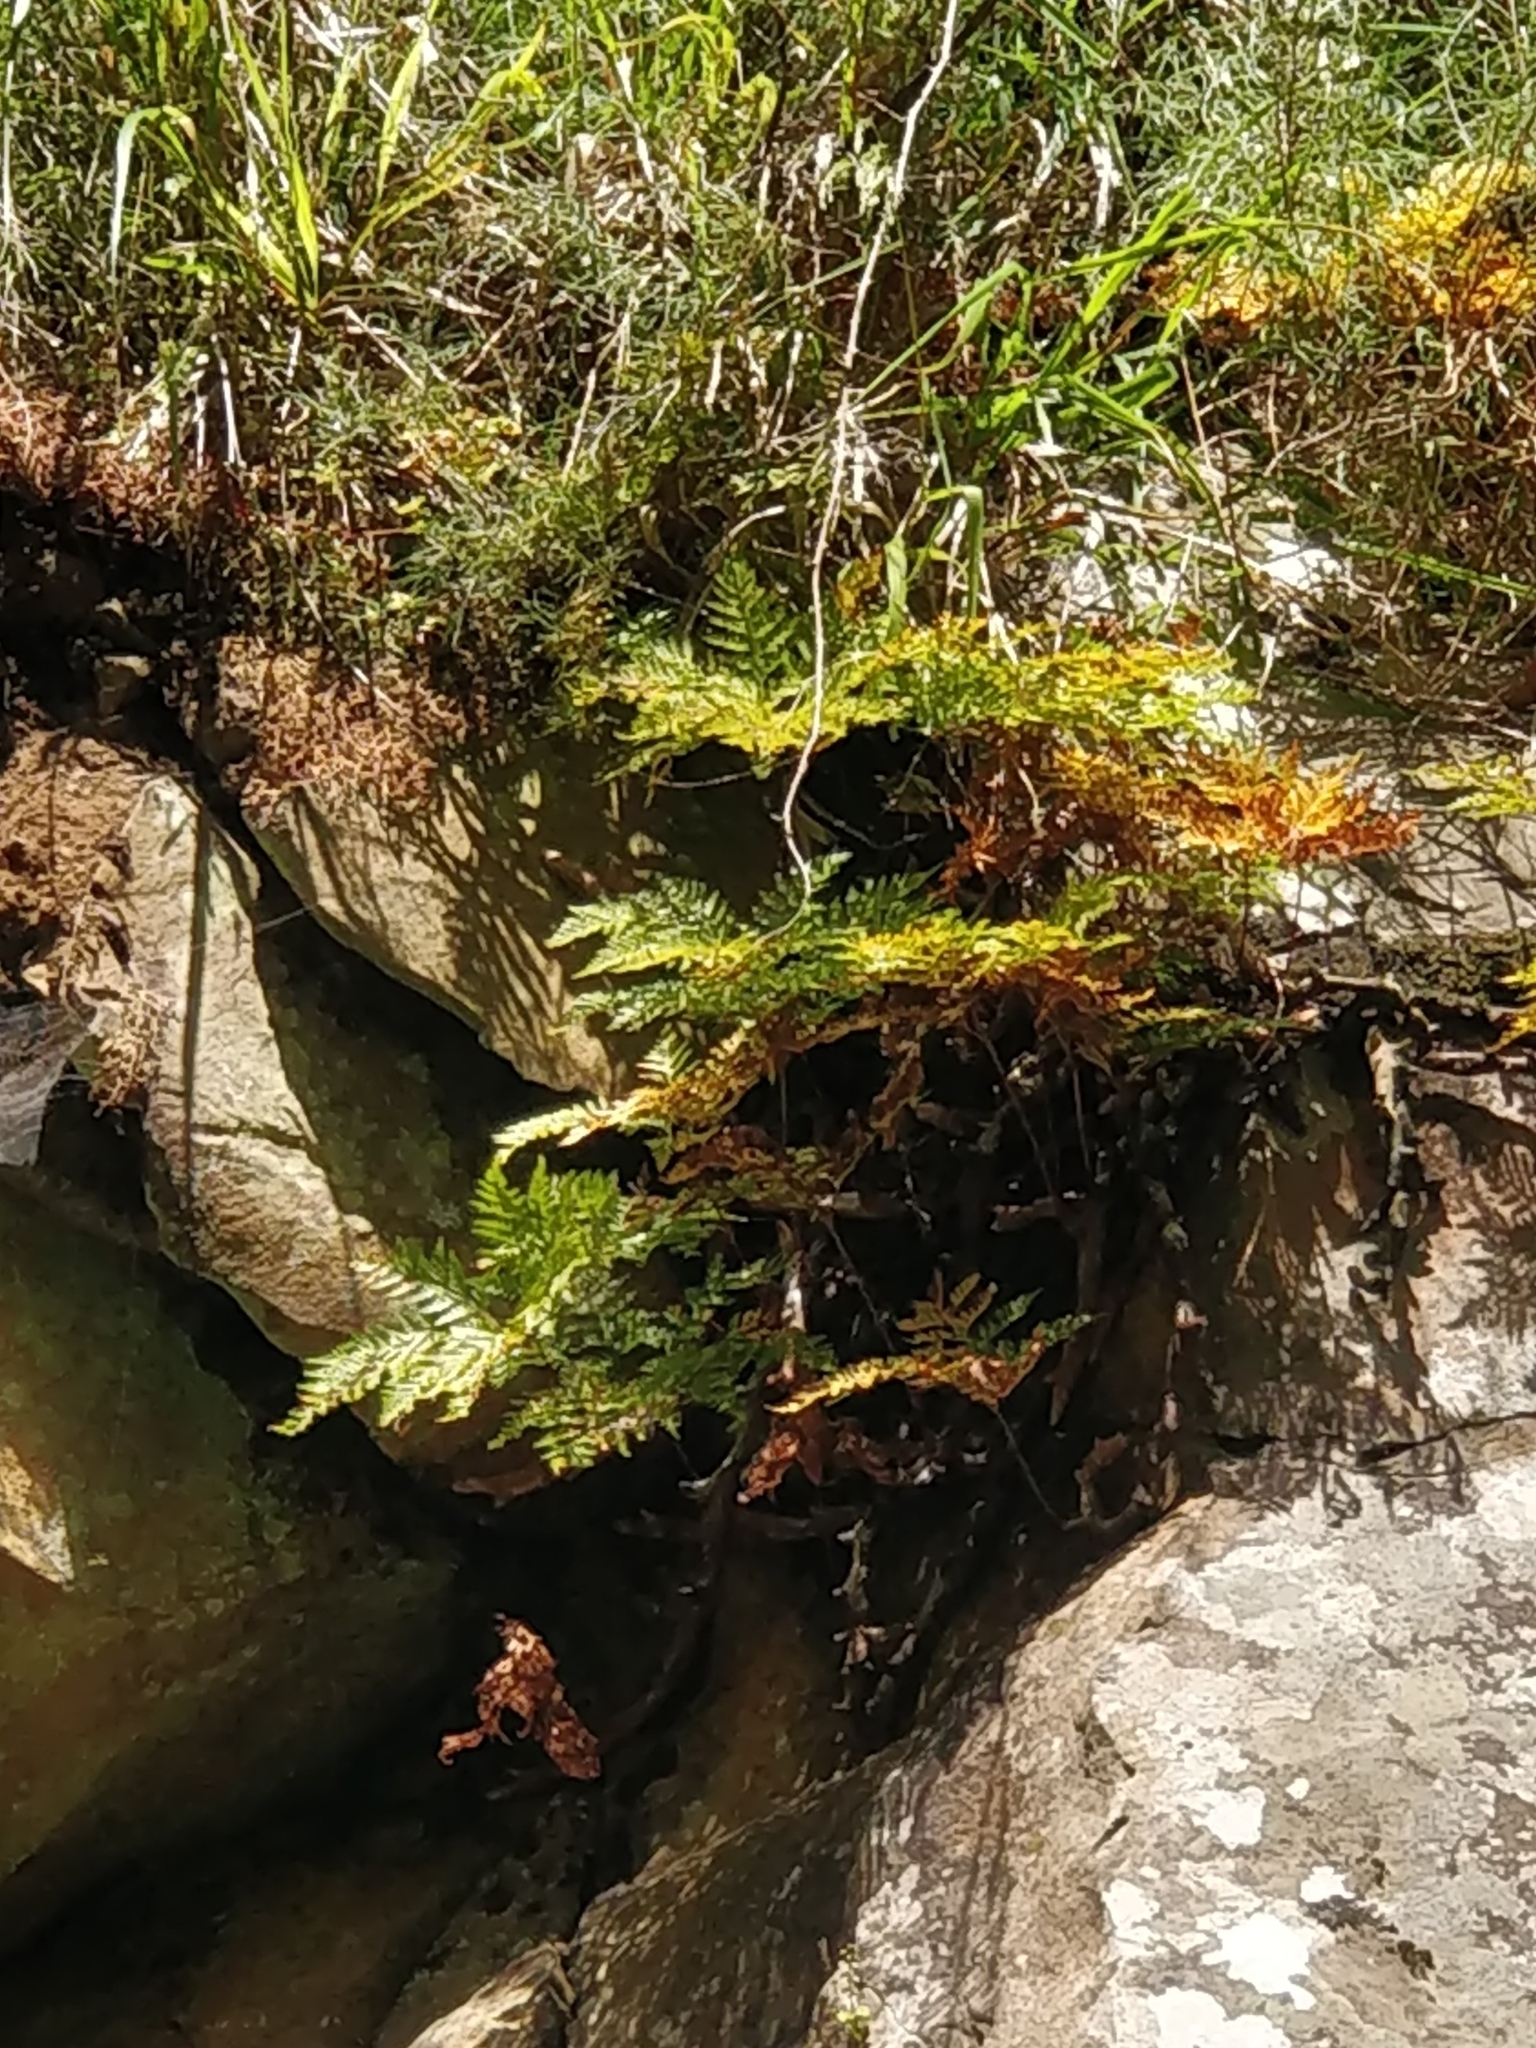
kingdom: Plantae
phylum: Tracheophyta
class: Polypodiopsida
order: Polypodiales
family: Davalliaceae
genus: Davallia
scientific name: Davallia canariensis
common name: Hare's-foot fern
